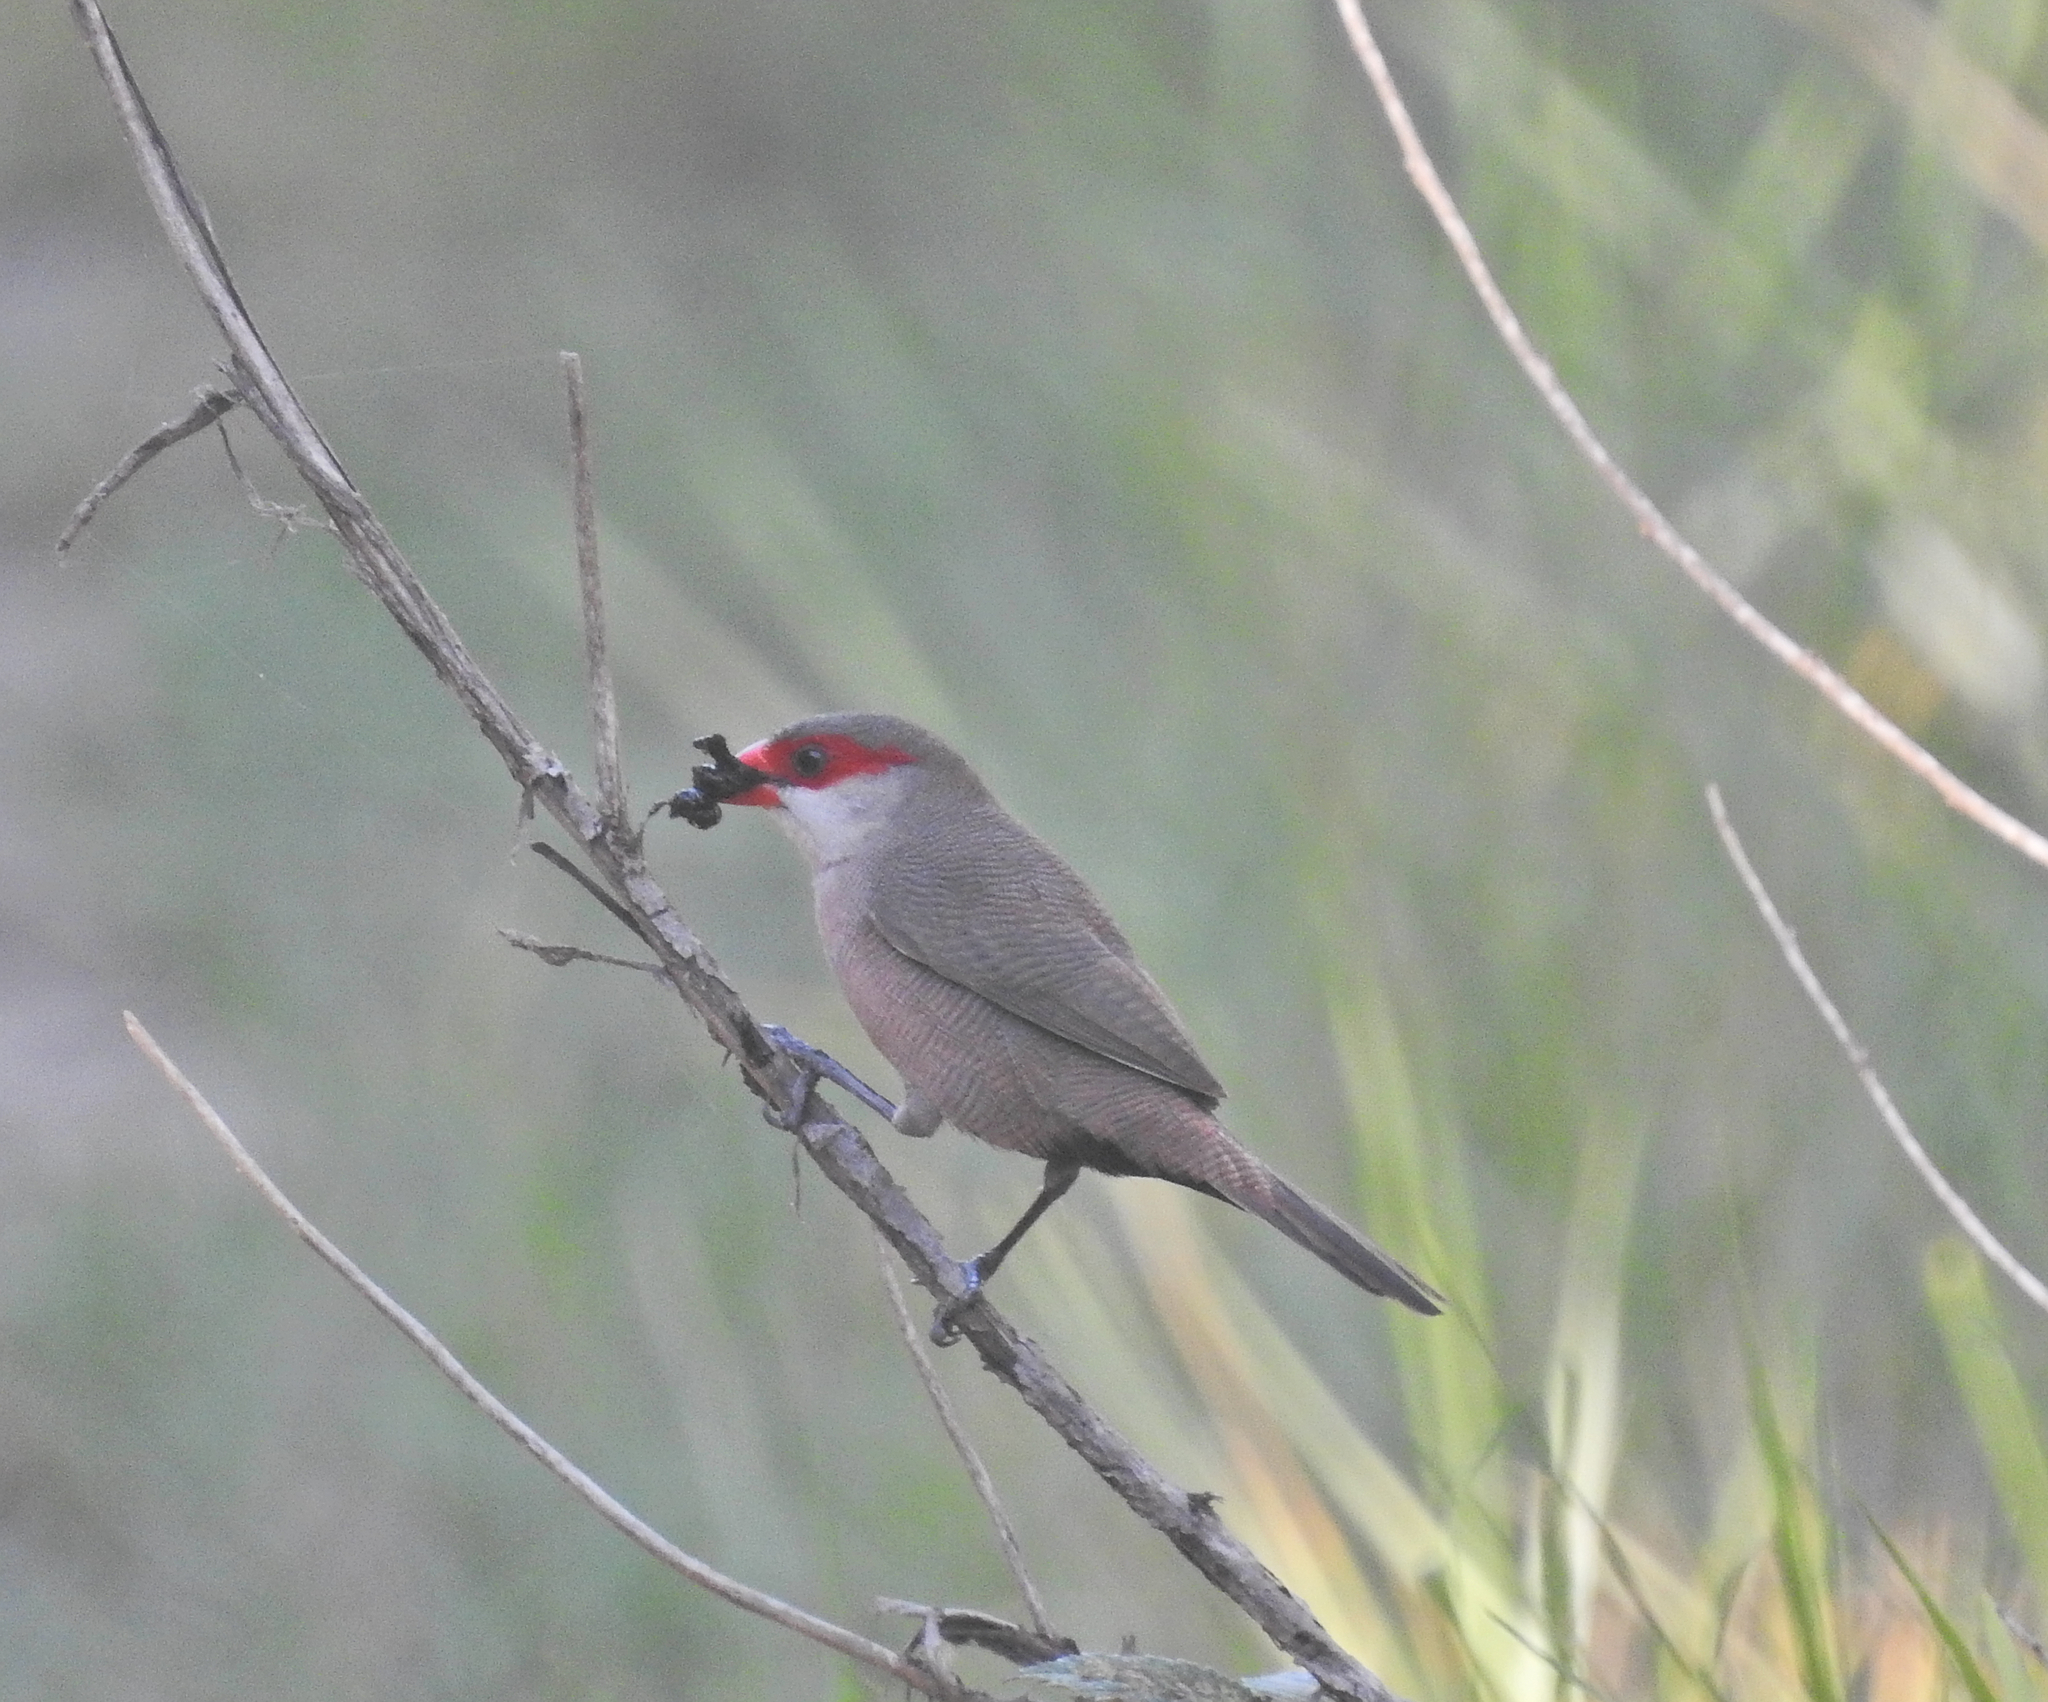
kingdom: Animalia
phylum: Chordata
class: Aves
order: Passeriformes
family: Estrildidae
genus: Estrilda
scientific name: Estrilda astrild
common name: Common waxbill
